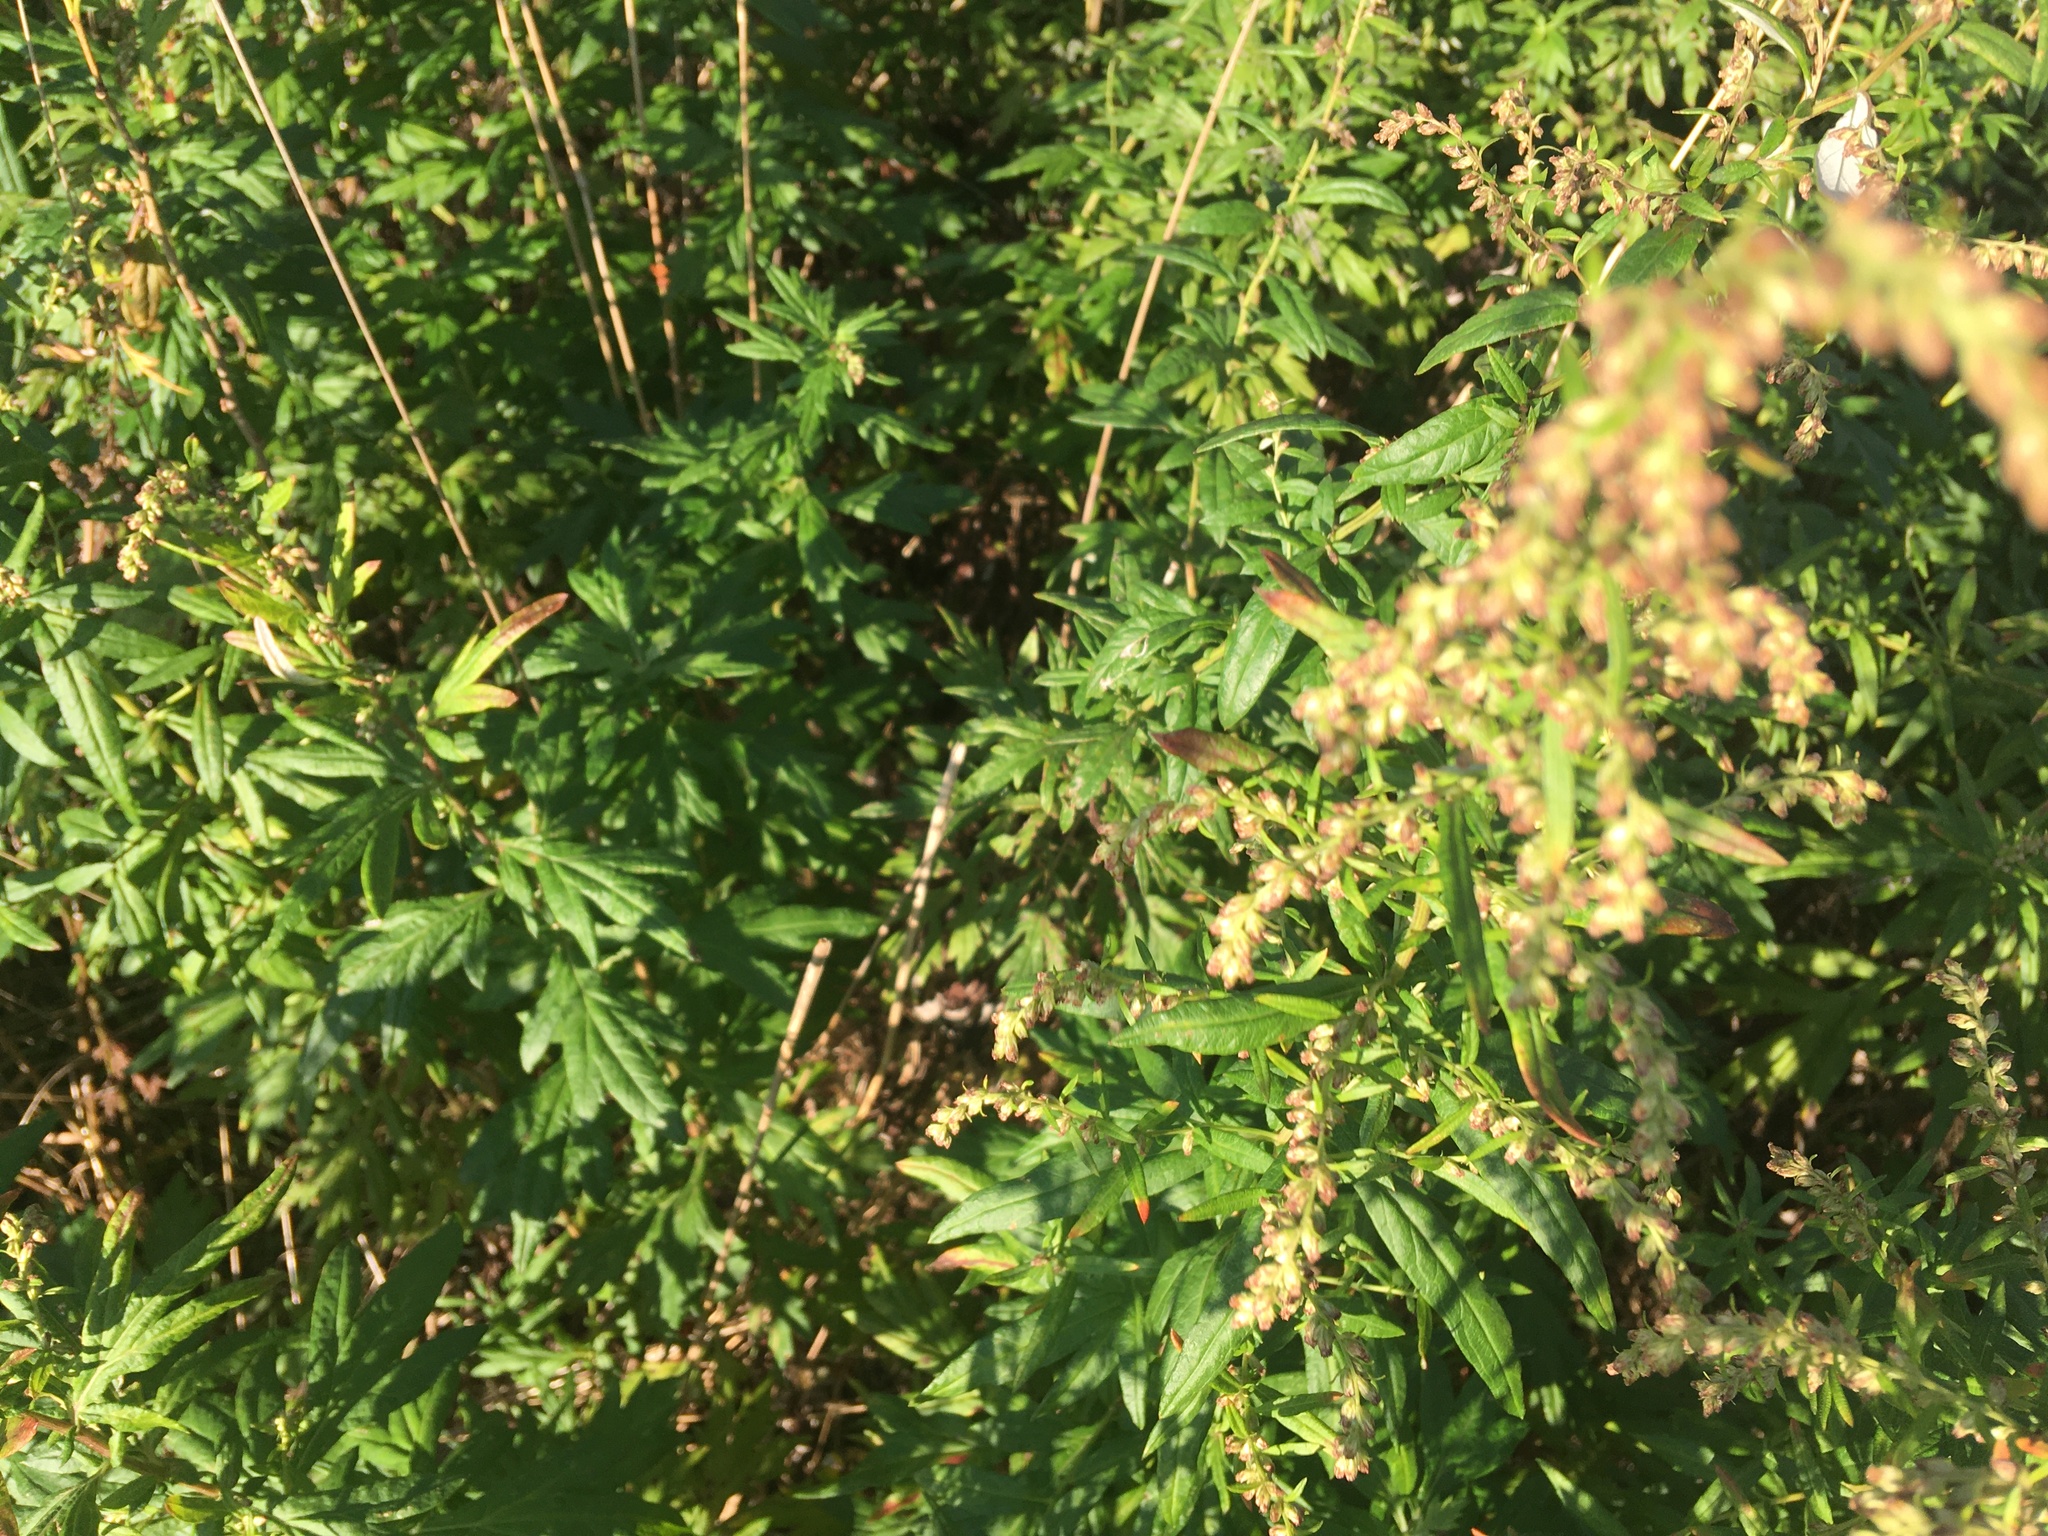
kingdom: Plantae
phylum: Tracheophyta
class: Magnoliopsida
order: Asterales
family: Asteraceae
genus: Artemisia
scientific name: Artemisia vulgaris
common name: Mugwort
